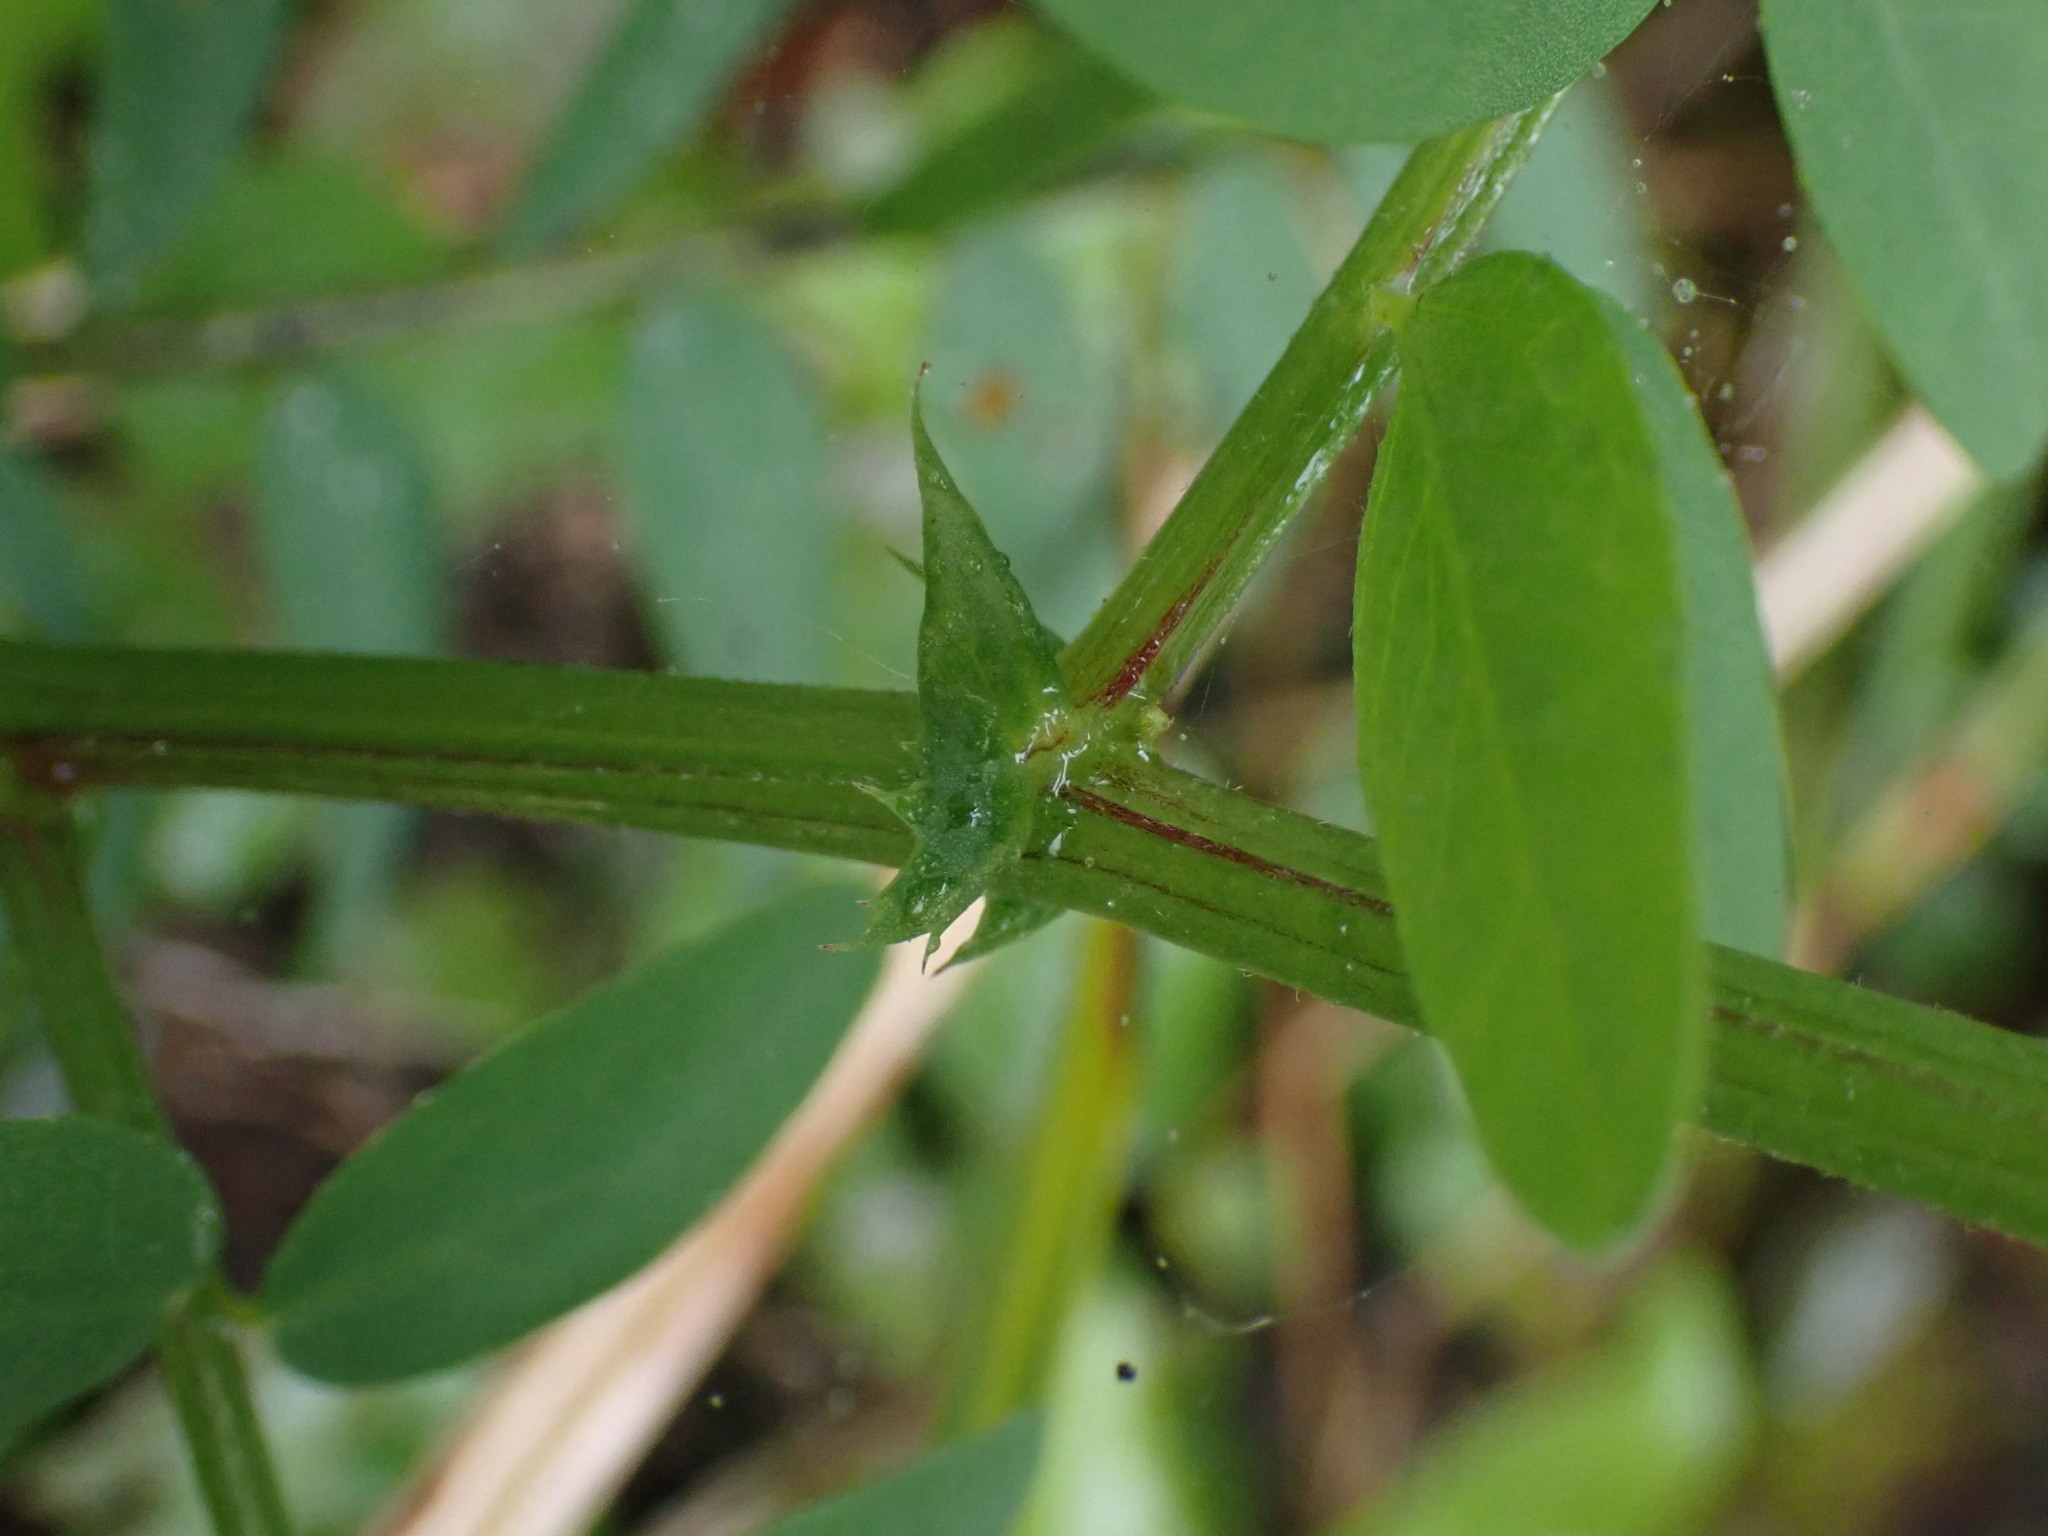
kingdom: Plantae
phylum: Tracheophyta
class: Magnoliopsida
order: Fabales
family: Fabaceae
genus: Vicia
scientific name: Vicia
